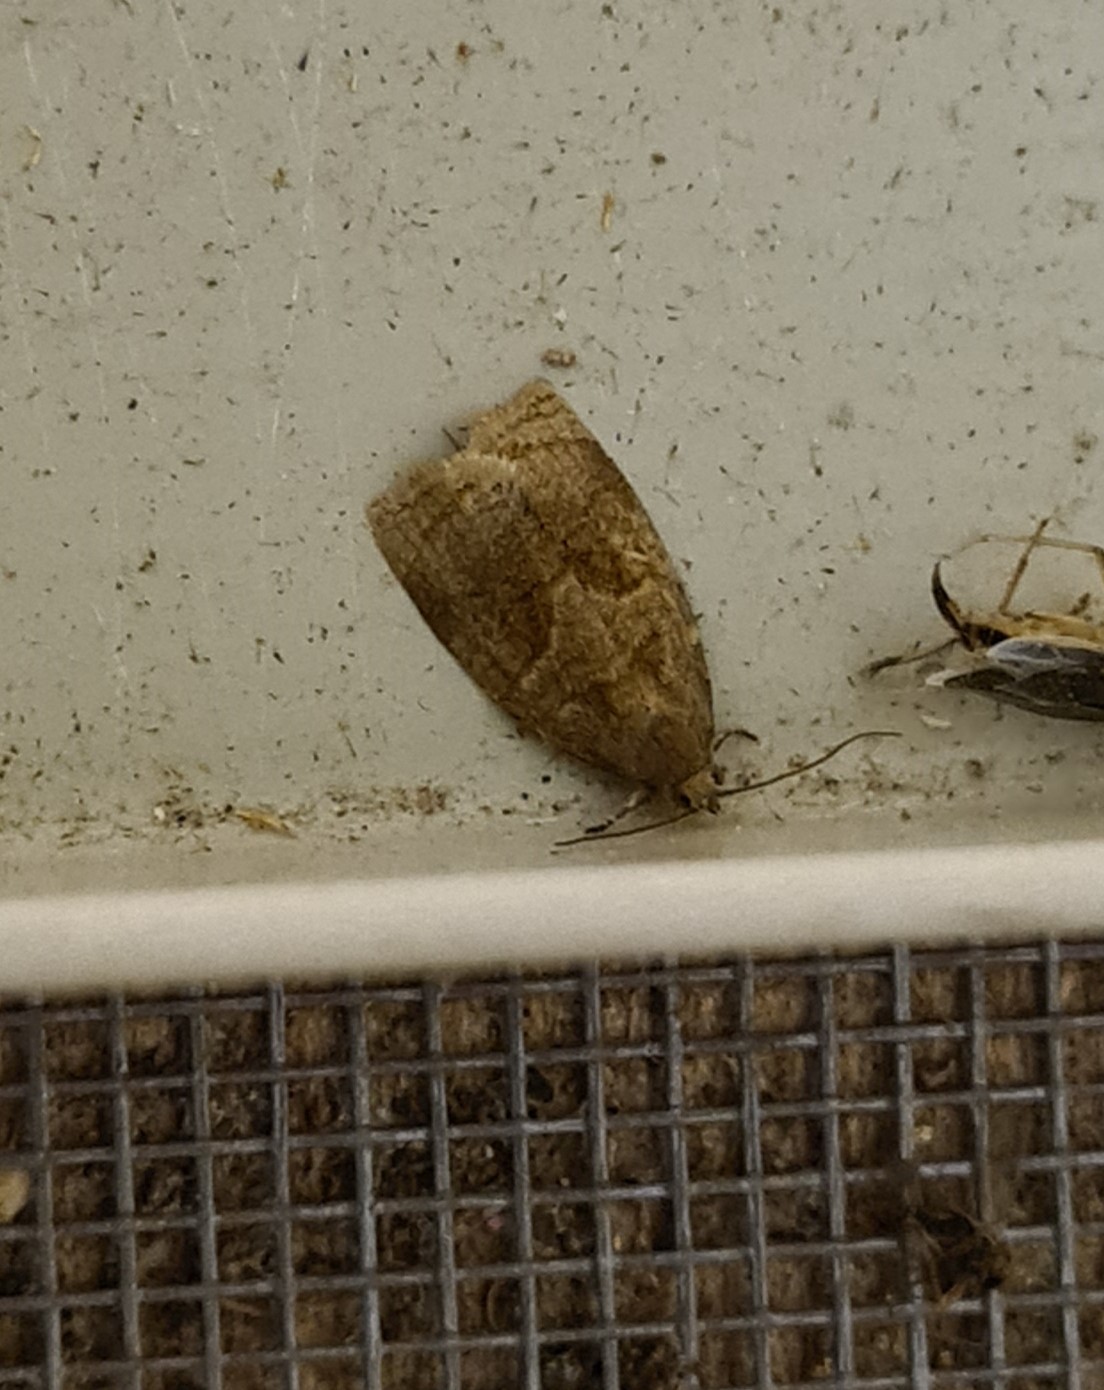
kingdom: Animalia
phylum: Arthropoda
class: Insecta
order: Lepidoptera
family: Tortricidae
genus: Archips
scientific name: Archips rosana
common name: Rose tortrix
